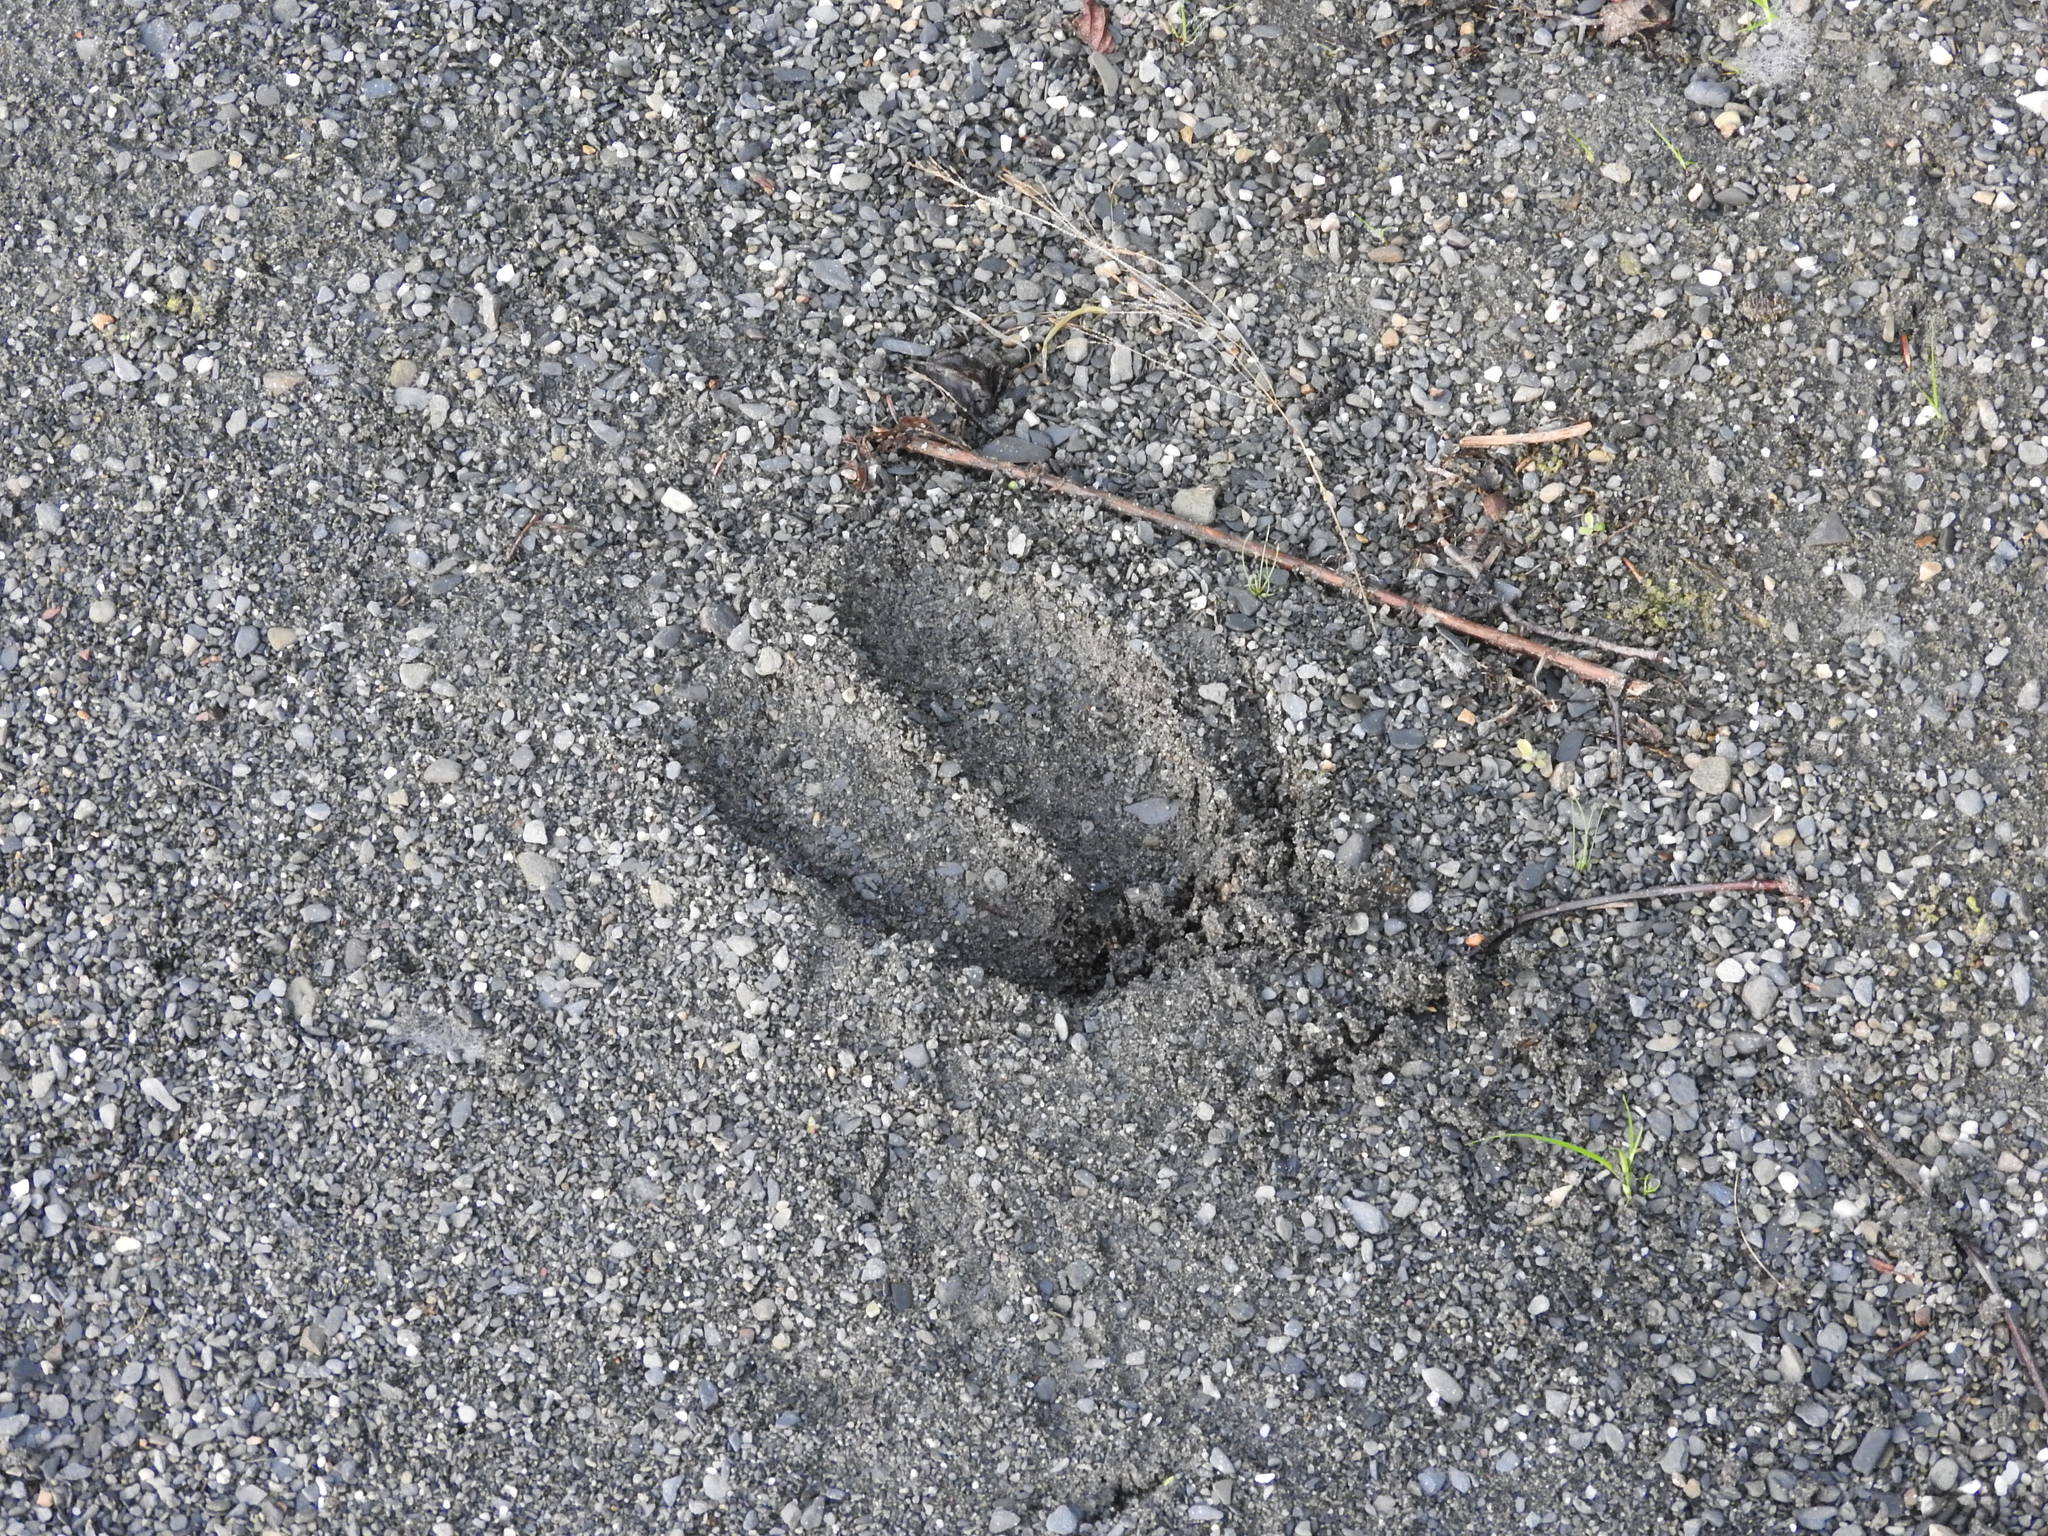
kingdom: Animalia
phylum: Chordata
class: Mammalia
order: Artiodactyla
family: Cervidae
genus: Alces
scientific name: Alces alces
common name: Moose
